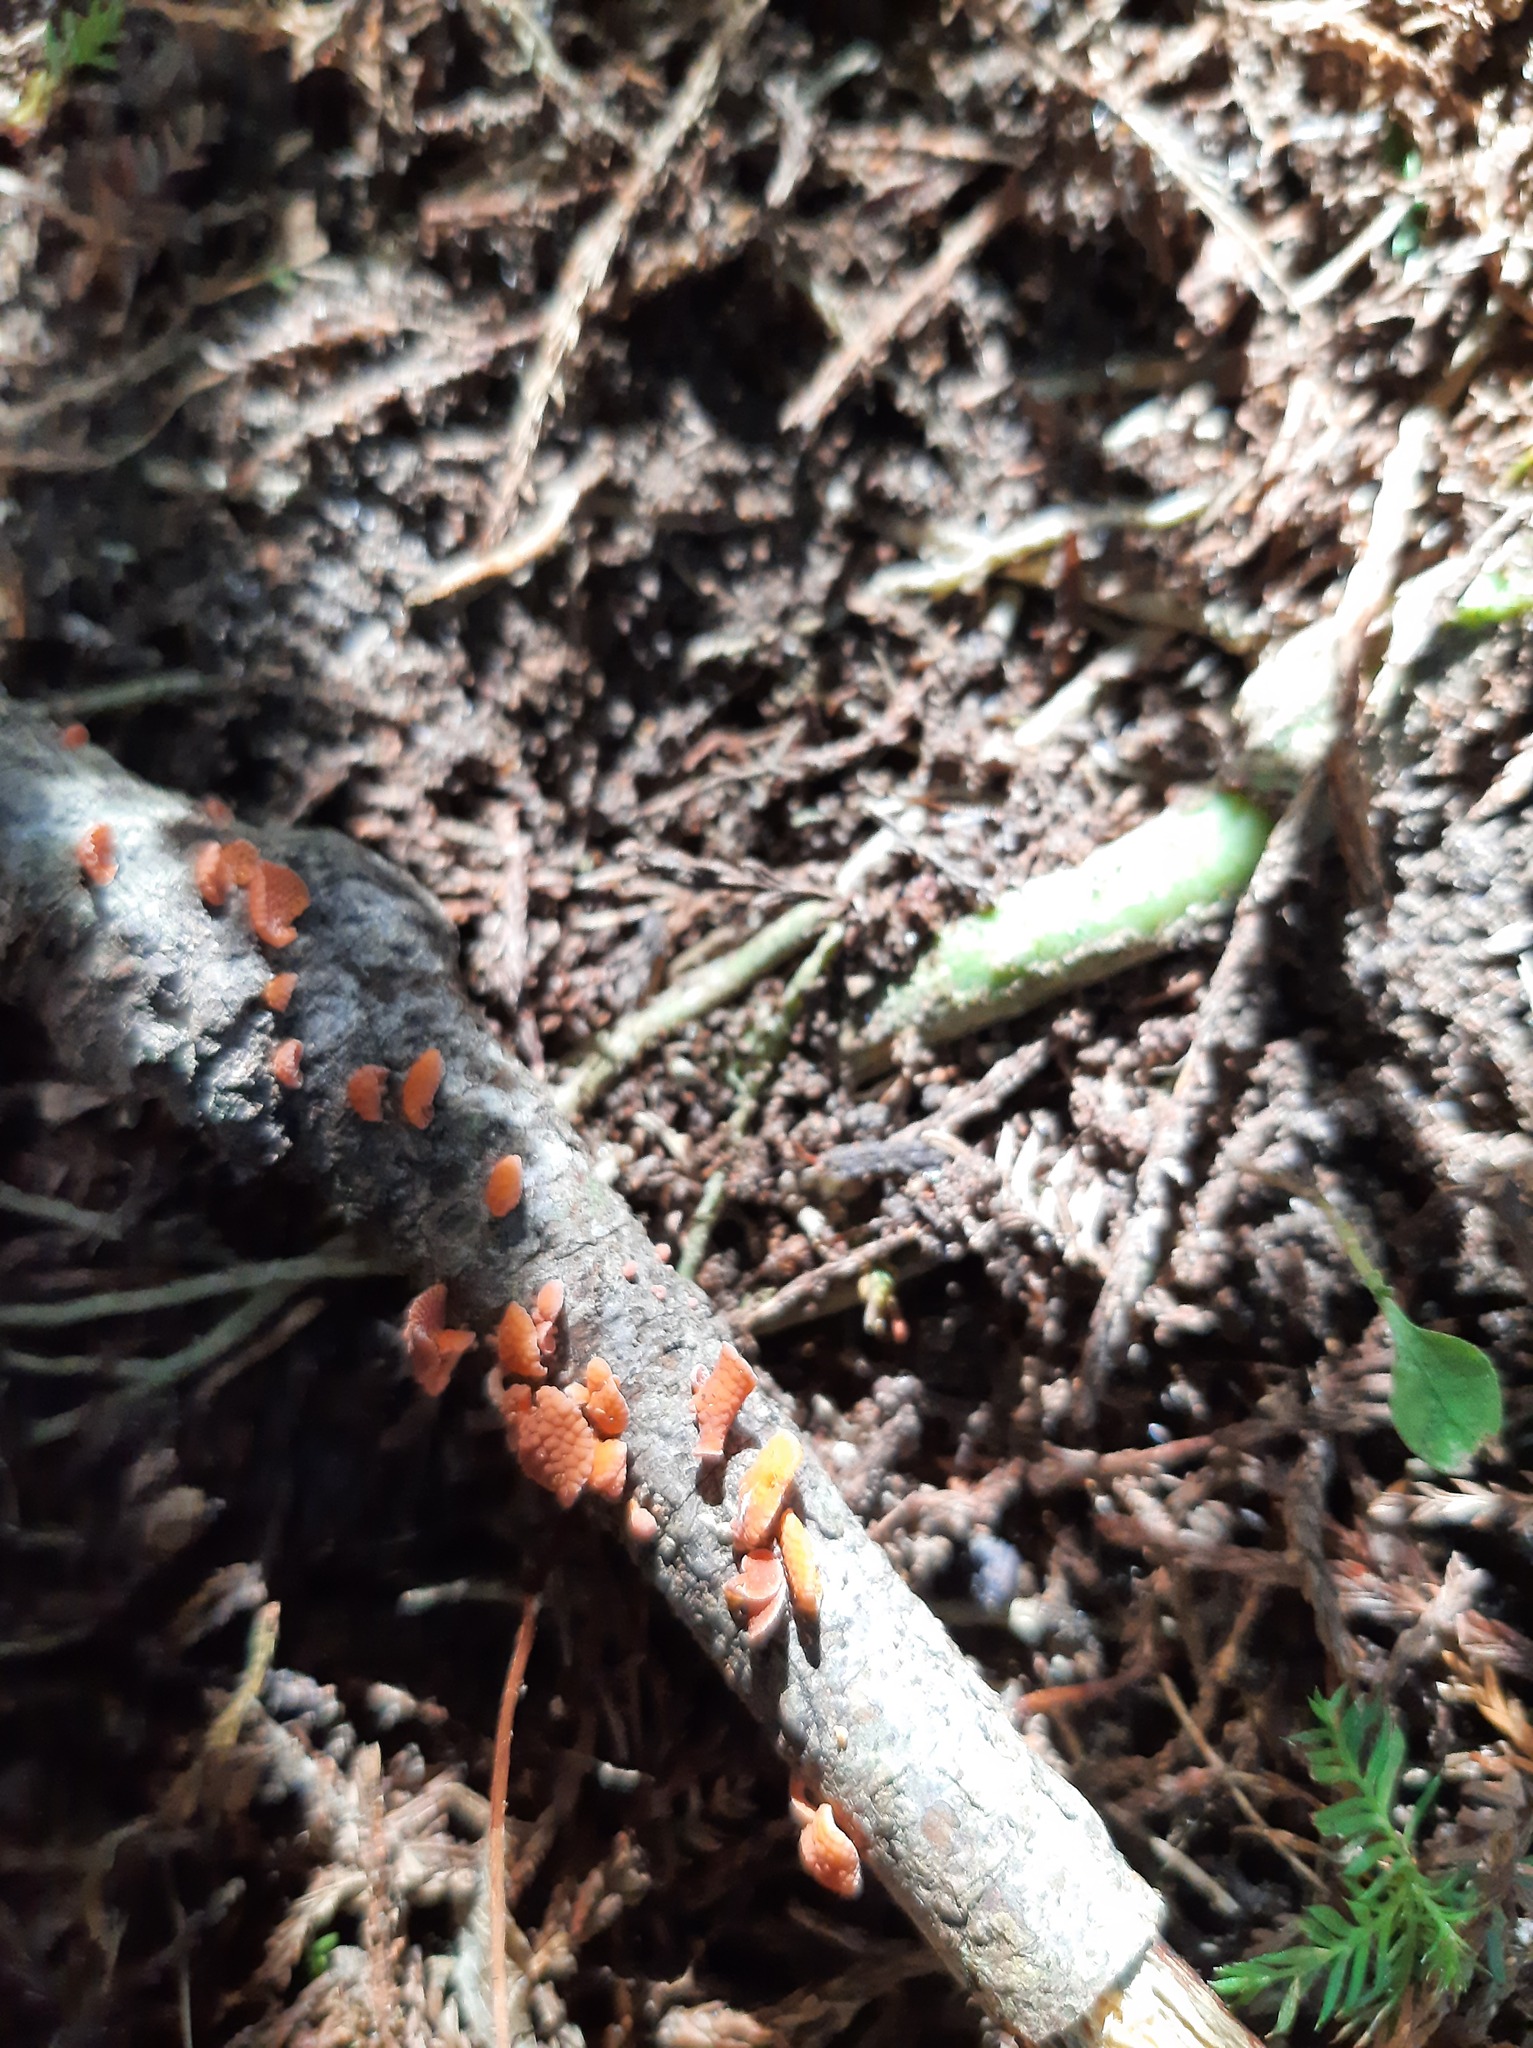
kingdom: Fungi
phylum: Basidiomycota
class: Agaricomycetes
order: Agaricales
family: Mycenaceae
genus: Favolaschia
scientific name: Favolaschia claudopus
